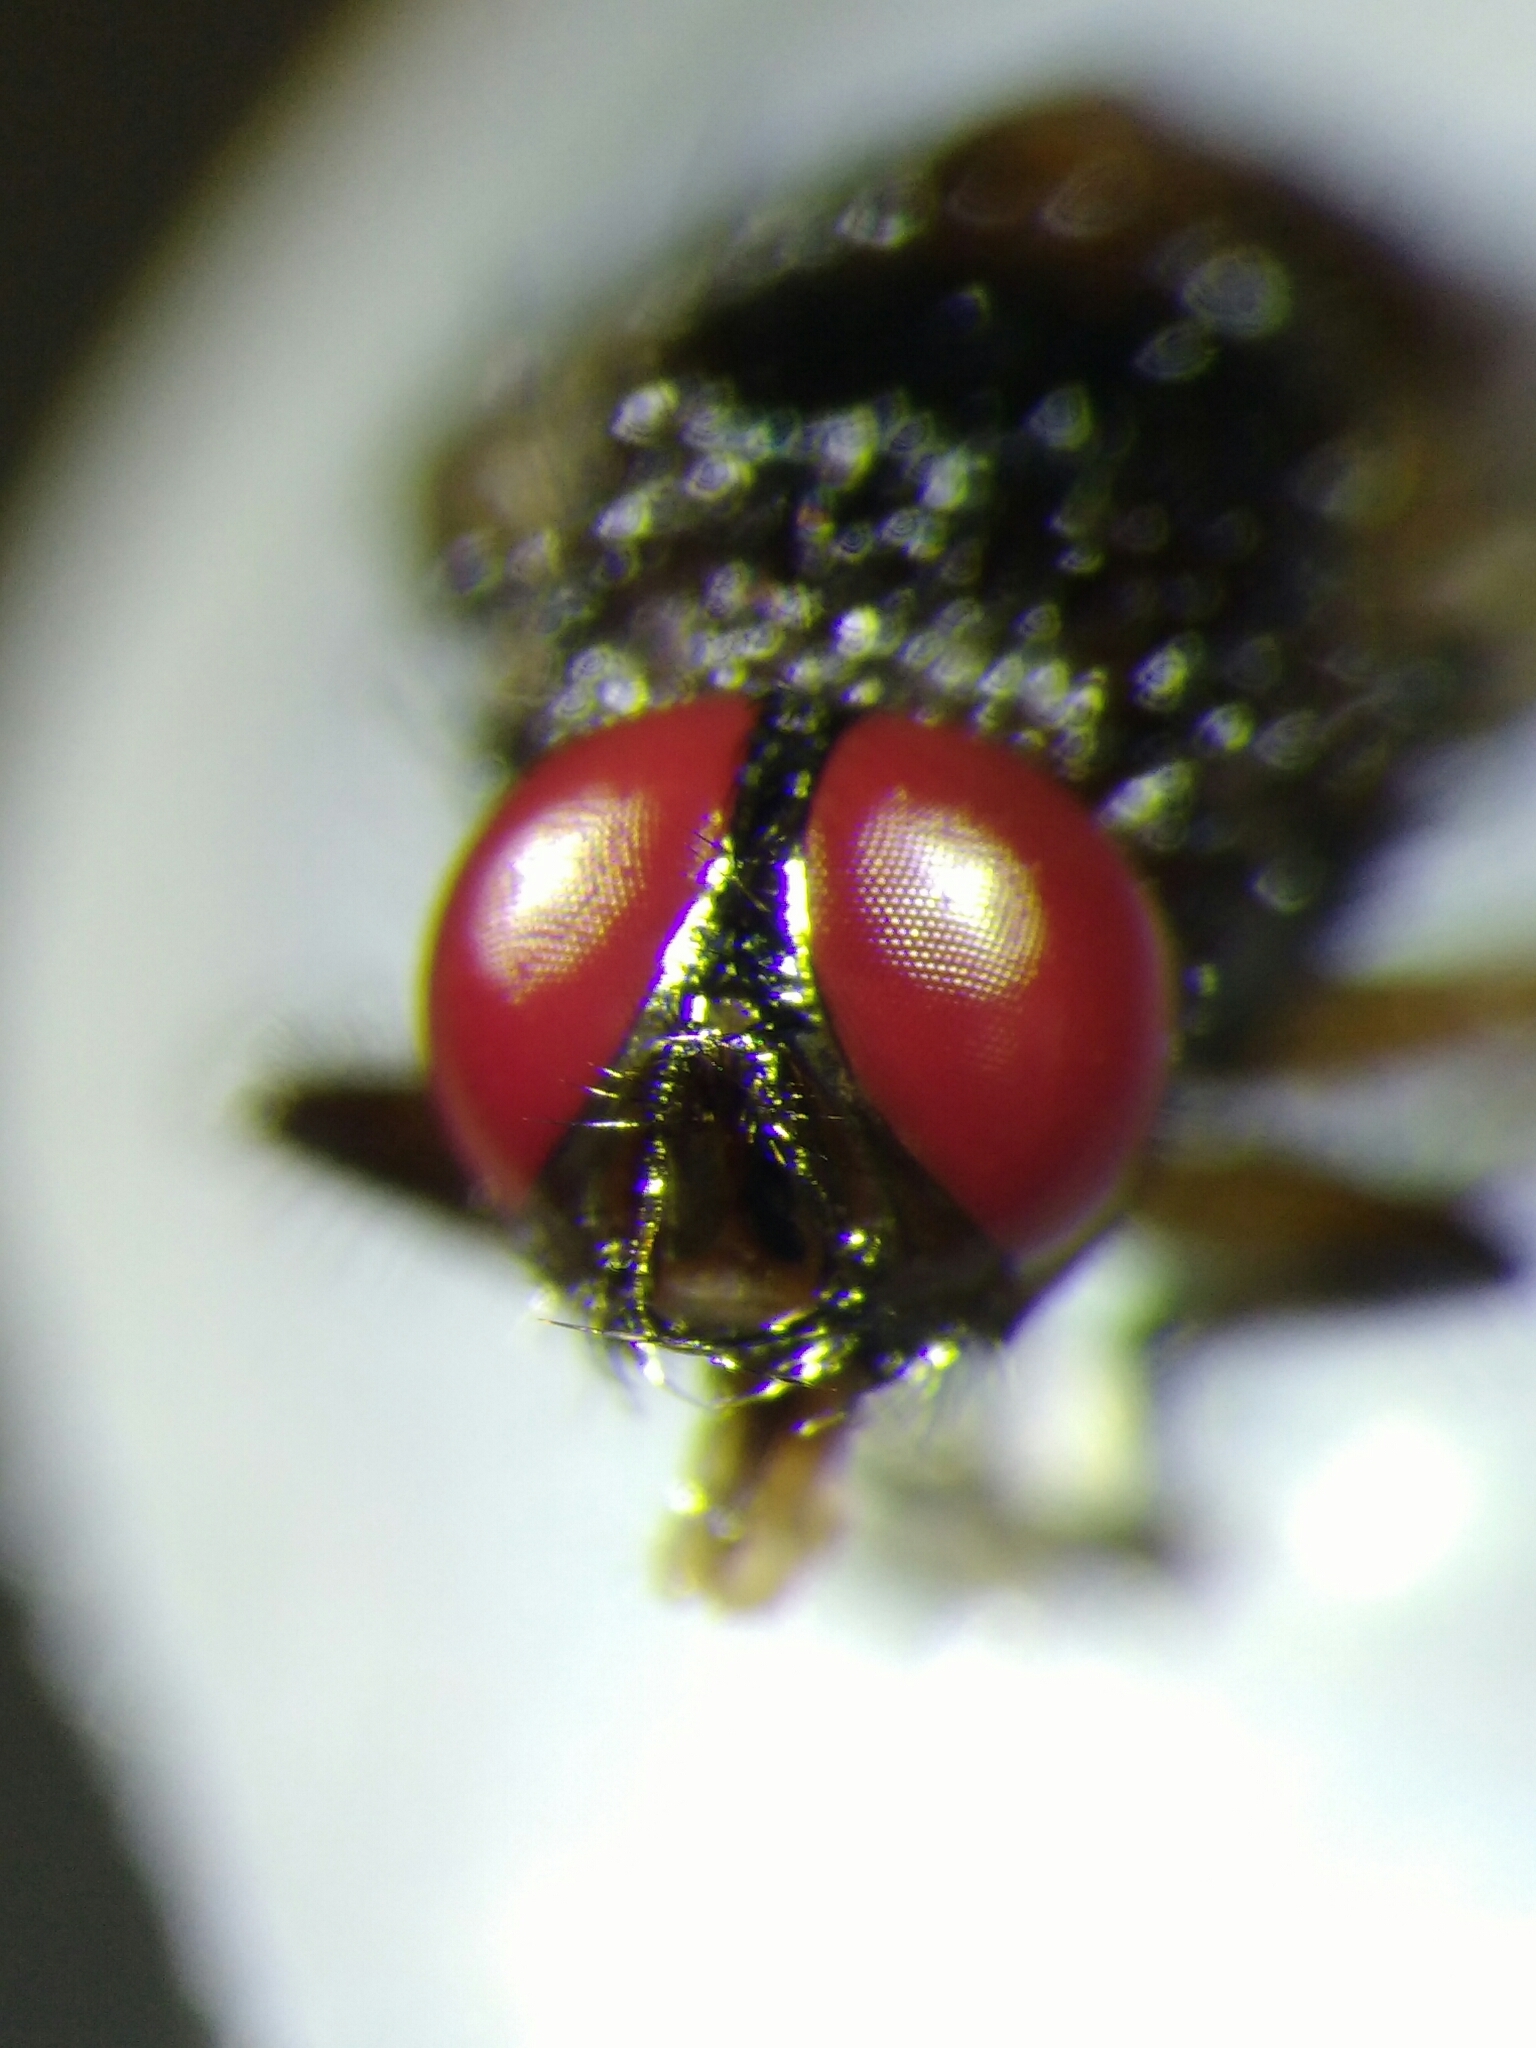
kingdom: Animalia
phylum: Arthropoda
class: Insecta
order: Diptera
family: Muscidae
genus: Muscina
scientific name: Muscina stabulans
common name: False stable fly
